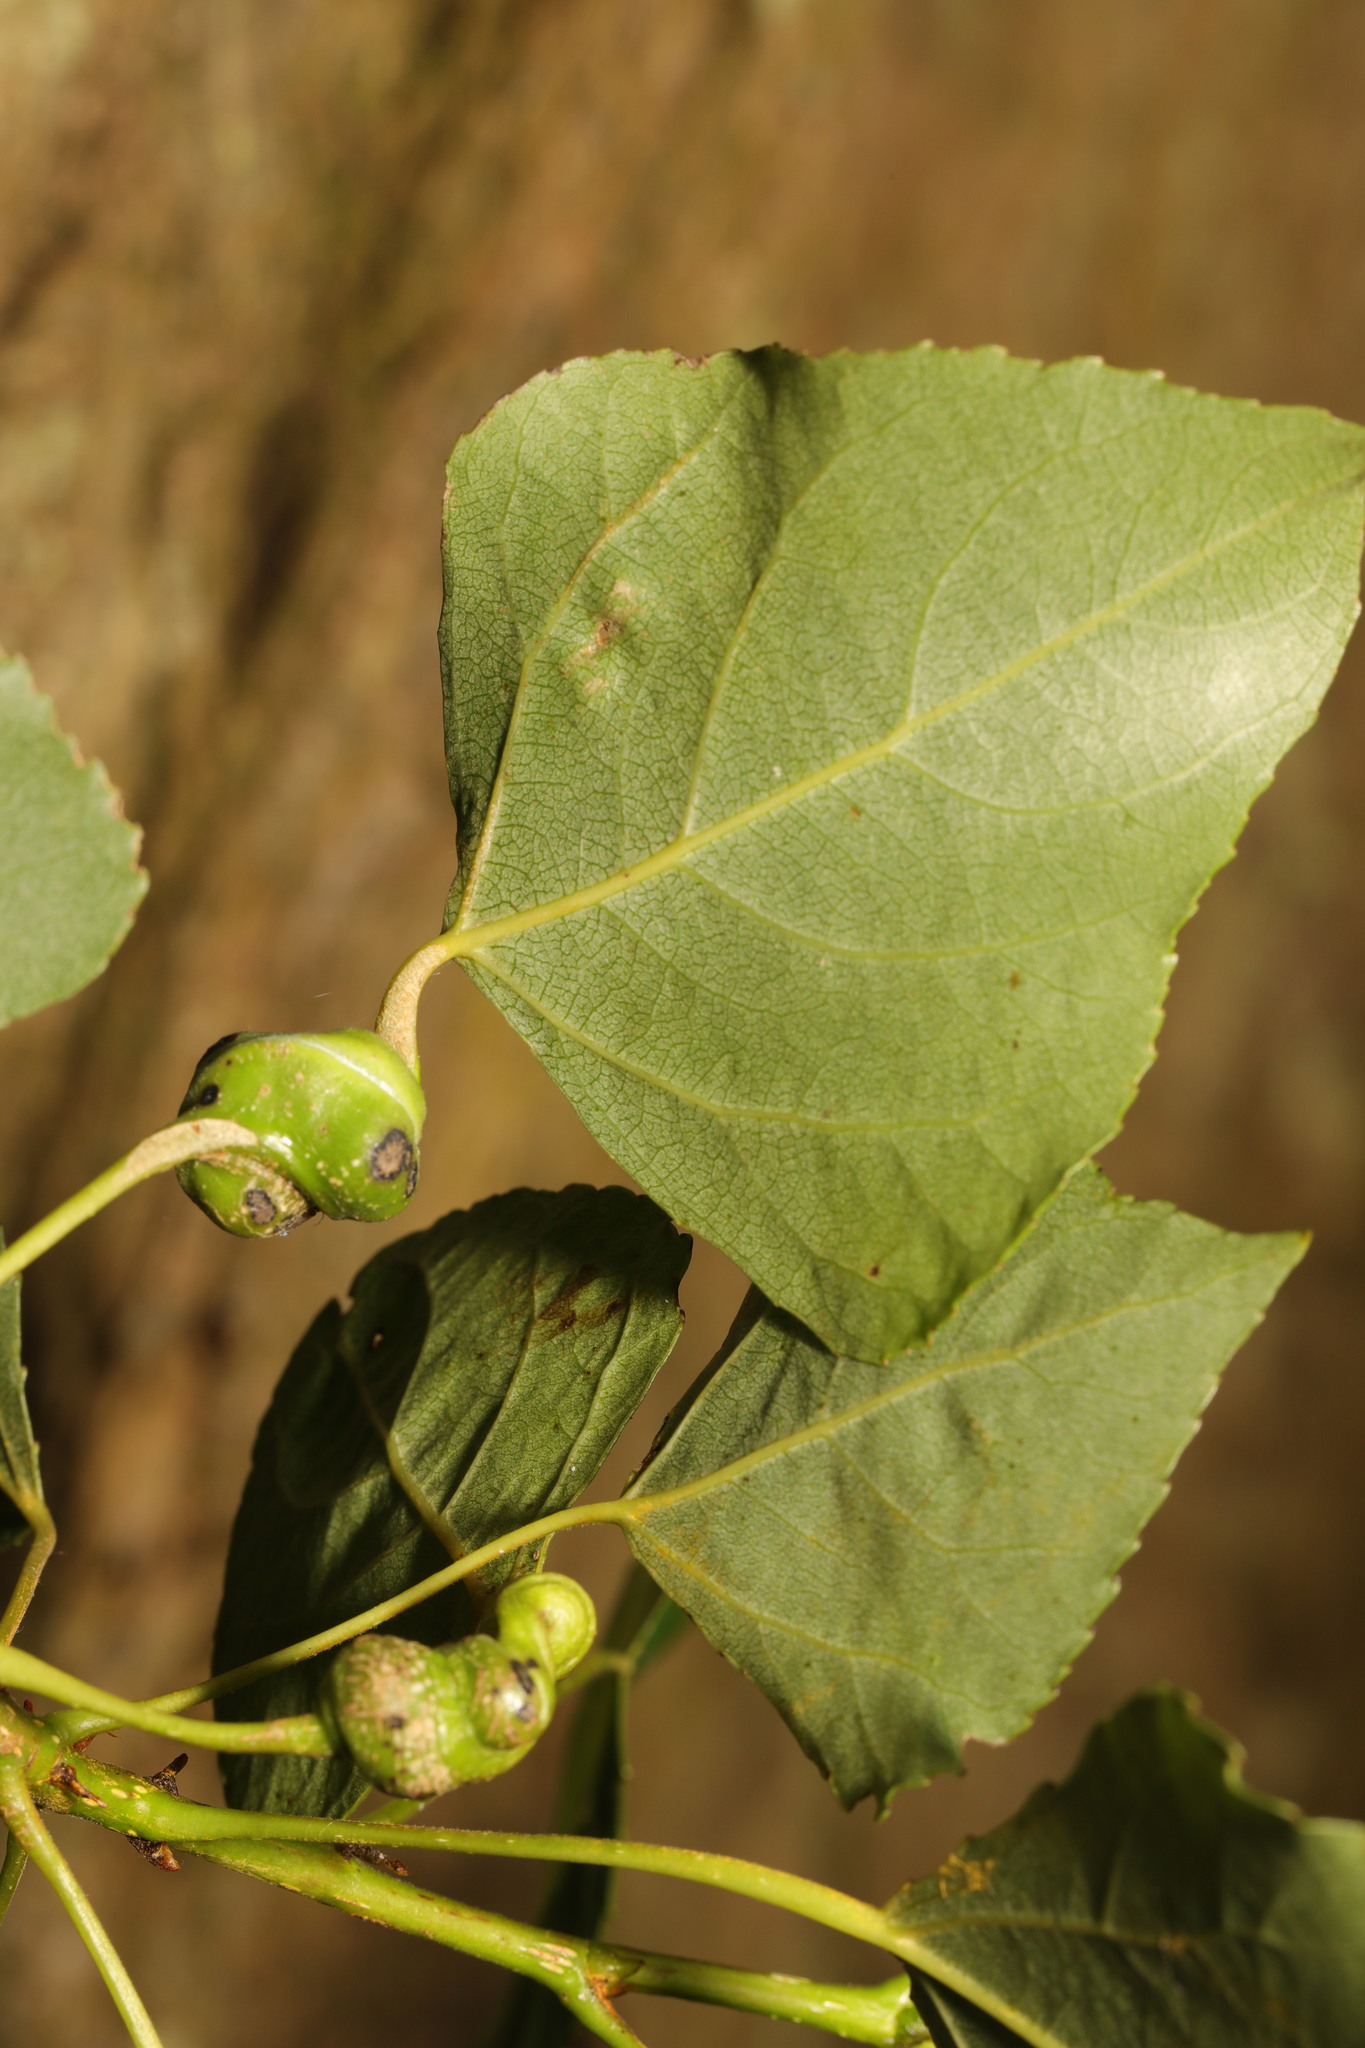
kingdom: Animalia
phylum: Arthropoda
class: Insecta
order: Hemiptera
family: Aphididae
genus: Pemphigus
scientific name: Pemphigus spyrothecae
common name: Aphid
